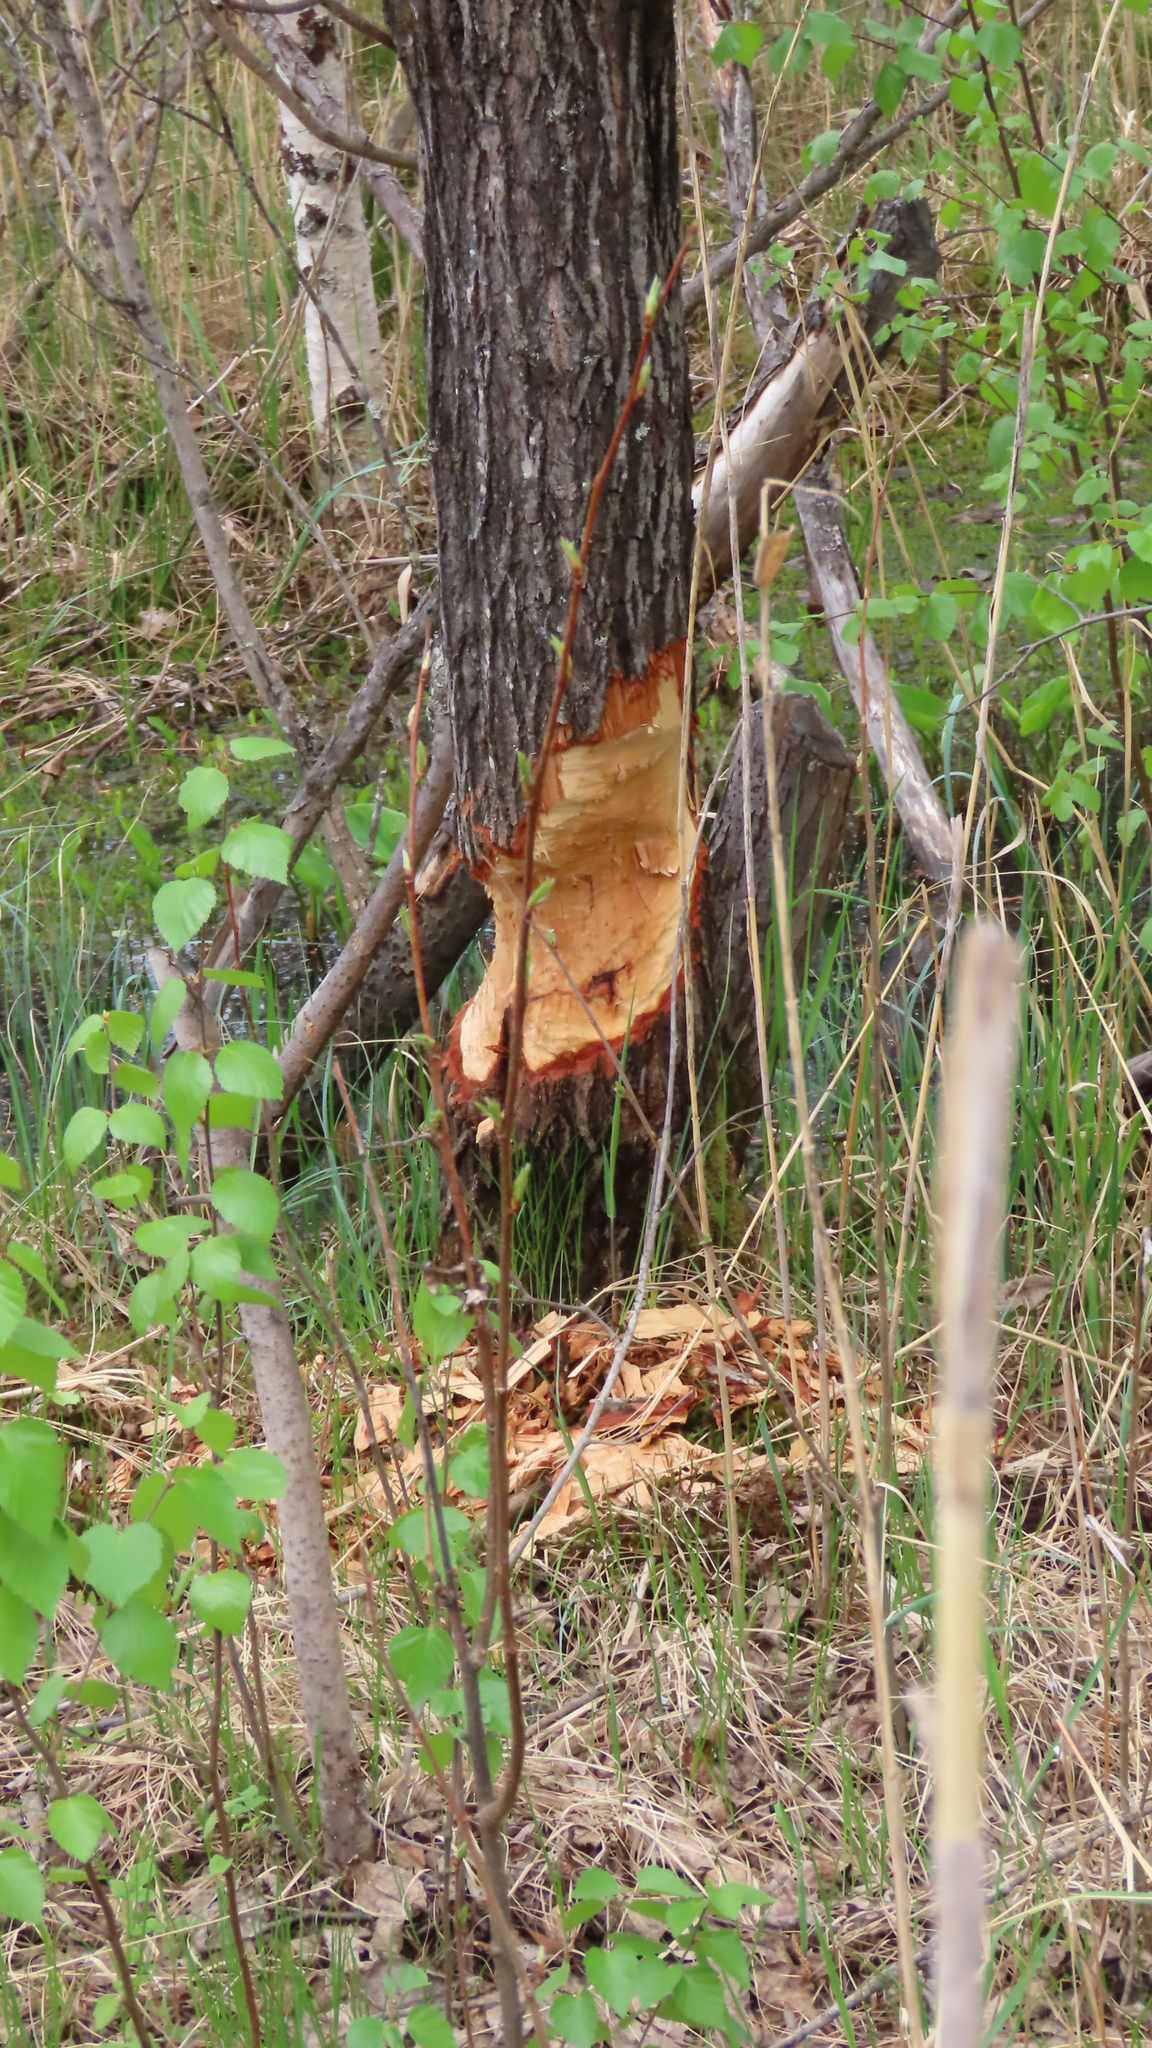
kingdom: Animalia
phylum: Chordata
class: Mammalia
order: Rodentia
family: Castoridae
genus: Castor
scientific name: Castor fiber
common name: Eurasian beaver
